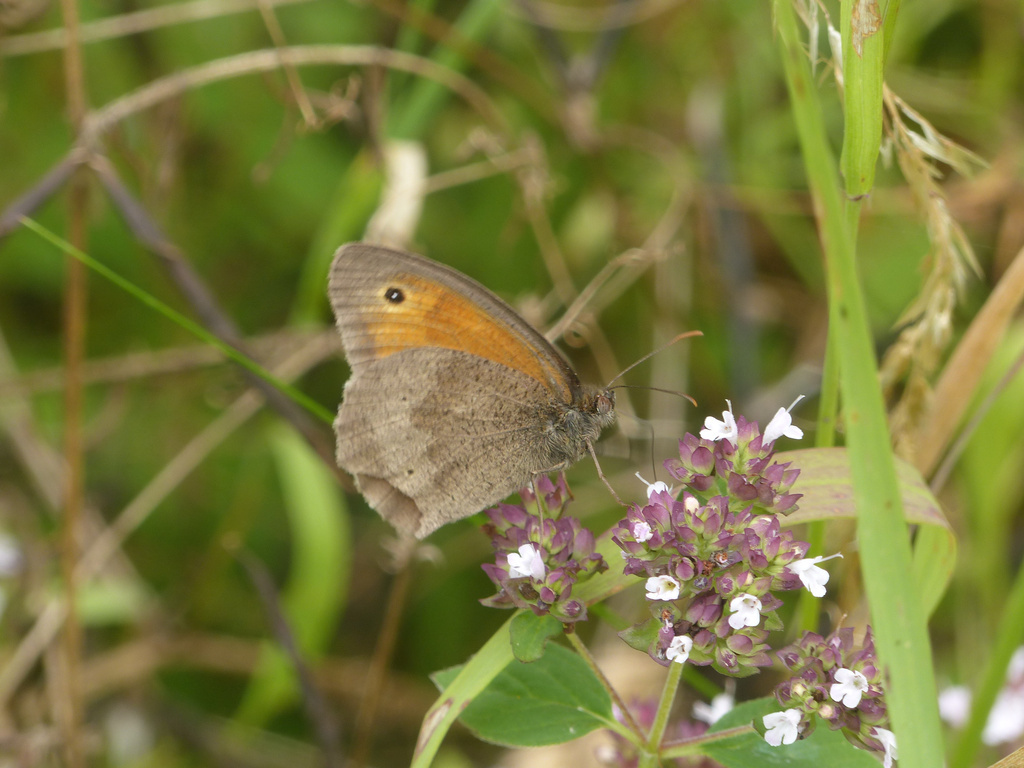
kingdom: Animalia
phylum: Arthropoda
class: Insecta
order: Lepidoptera
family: Nymphalidae
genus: Maniola
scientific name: Maniola jurtina
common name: Meadow brown
